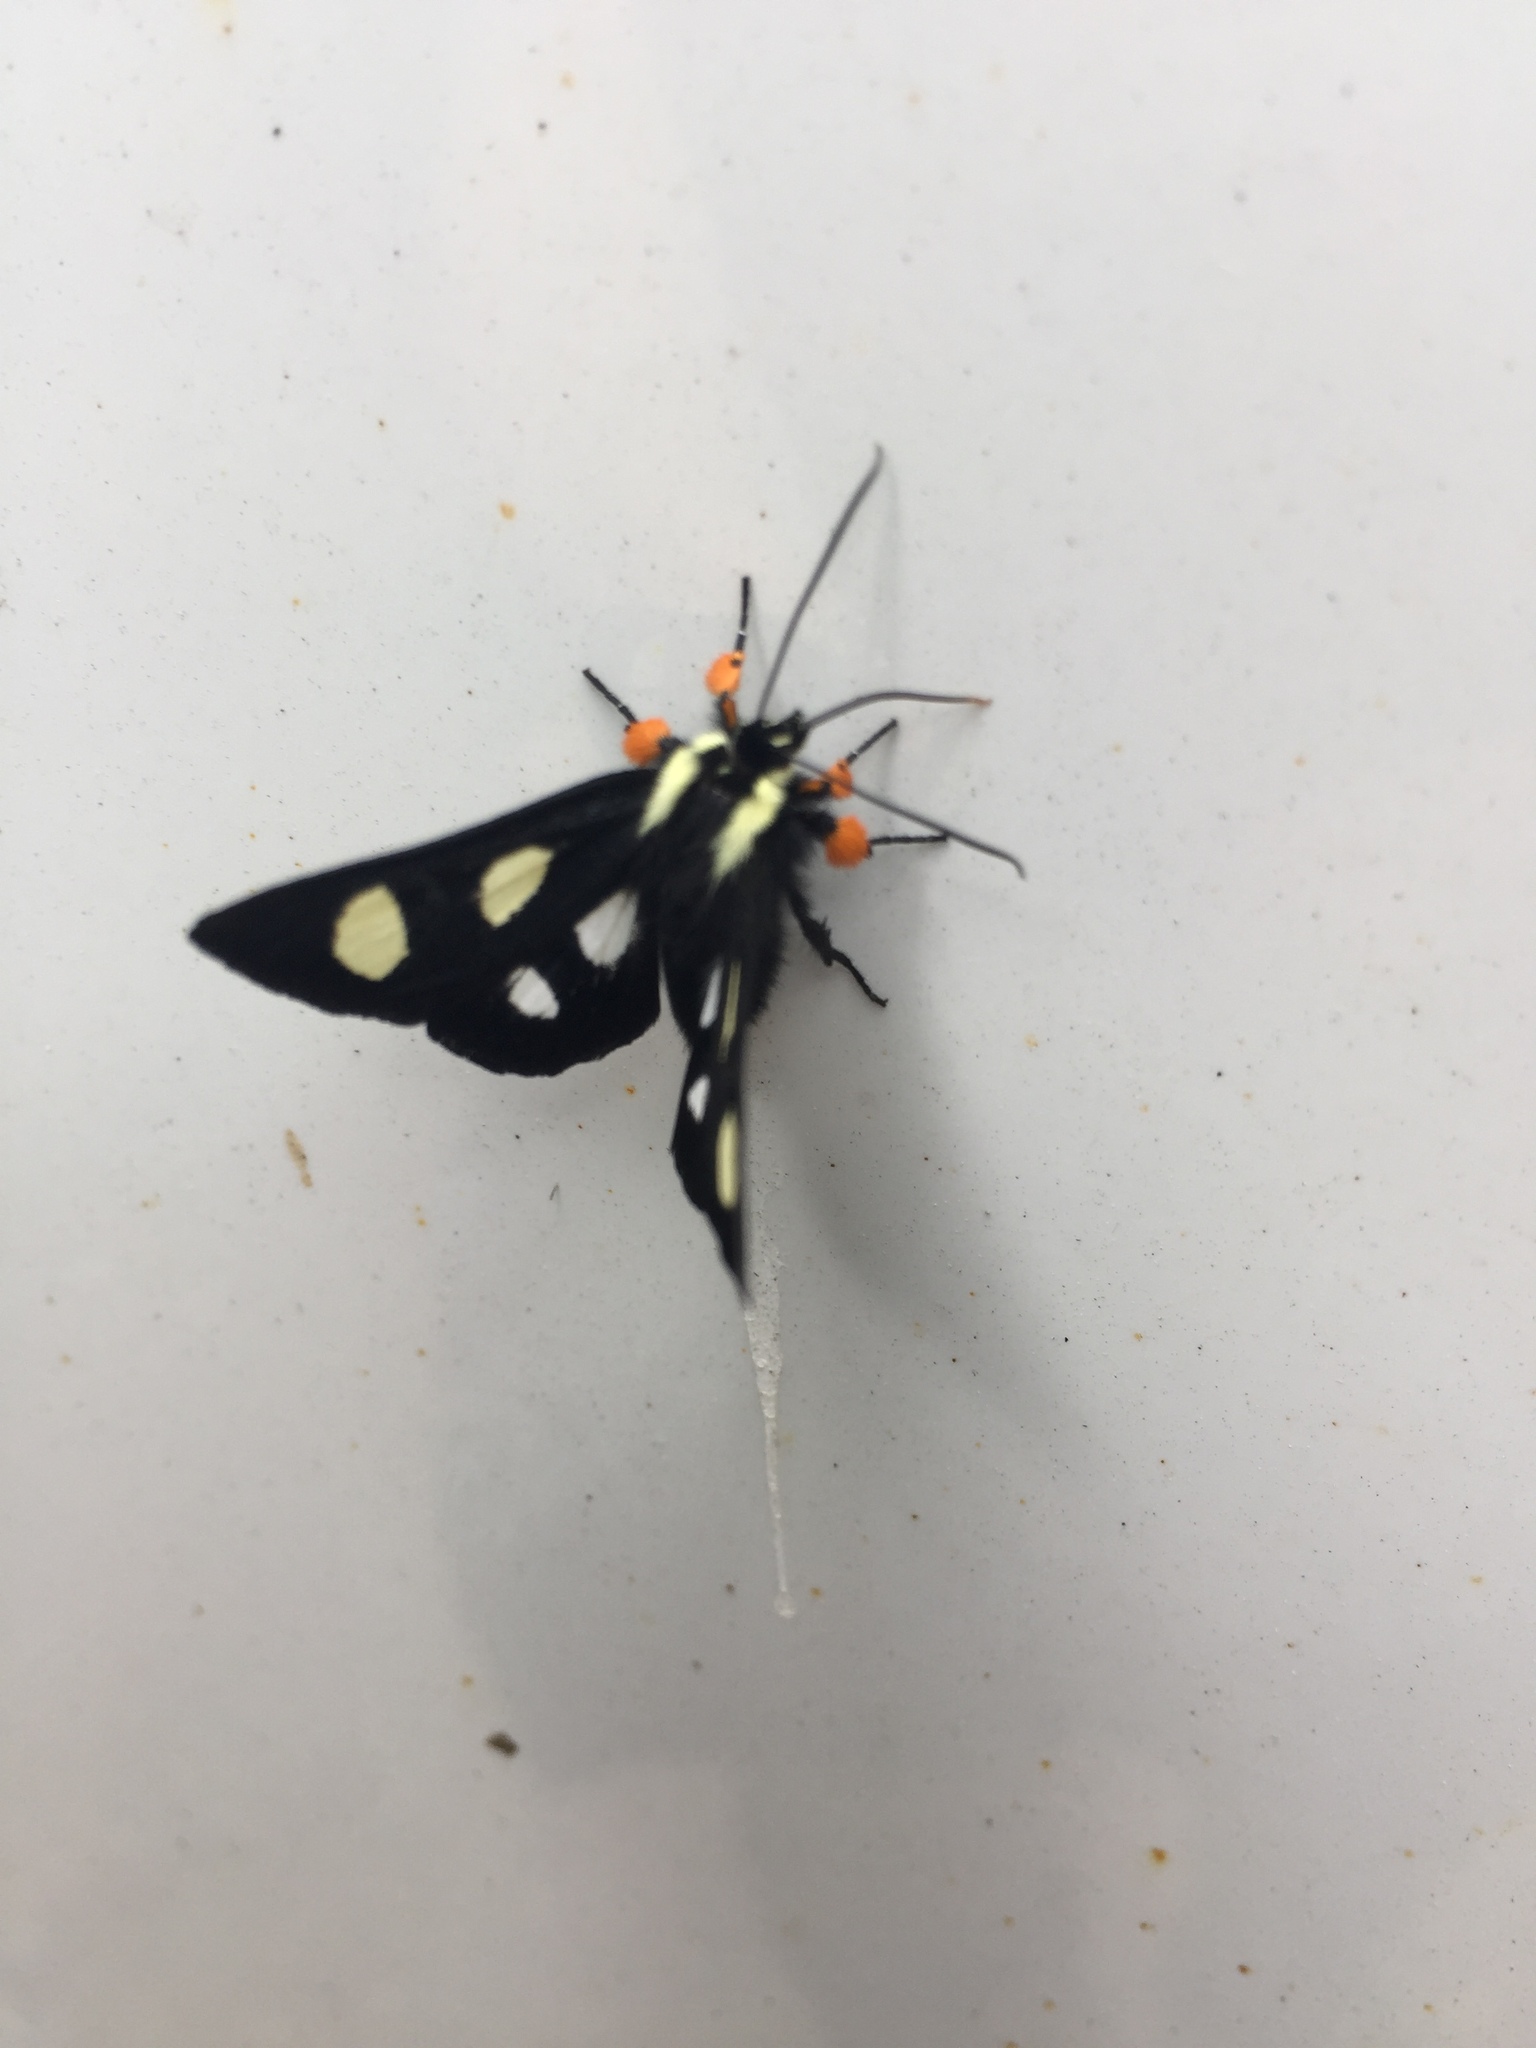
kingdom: Animalia
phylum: Arthropoda
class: Insecta
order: Lepidoptera
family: Noctuidae
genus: Alypia
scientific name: Alypia octomaculata
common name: Eight-spotted forester
